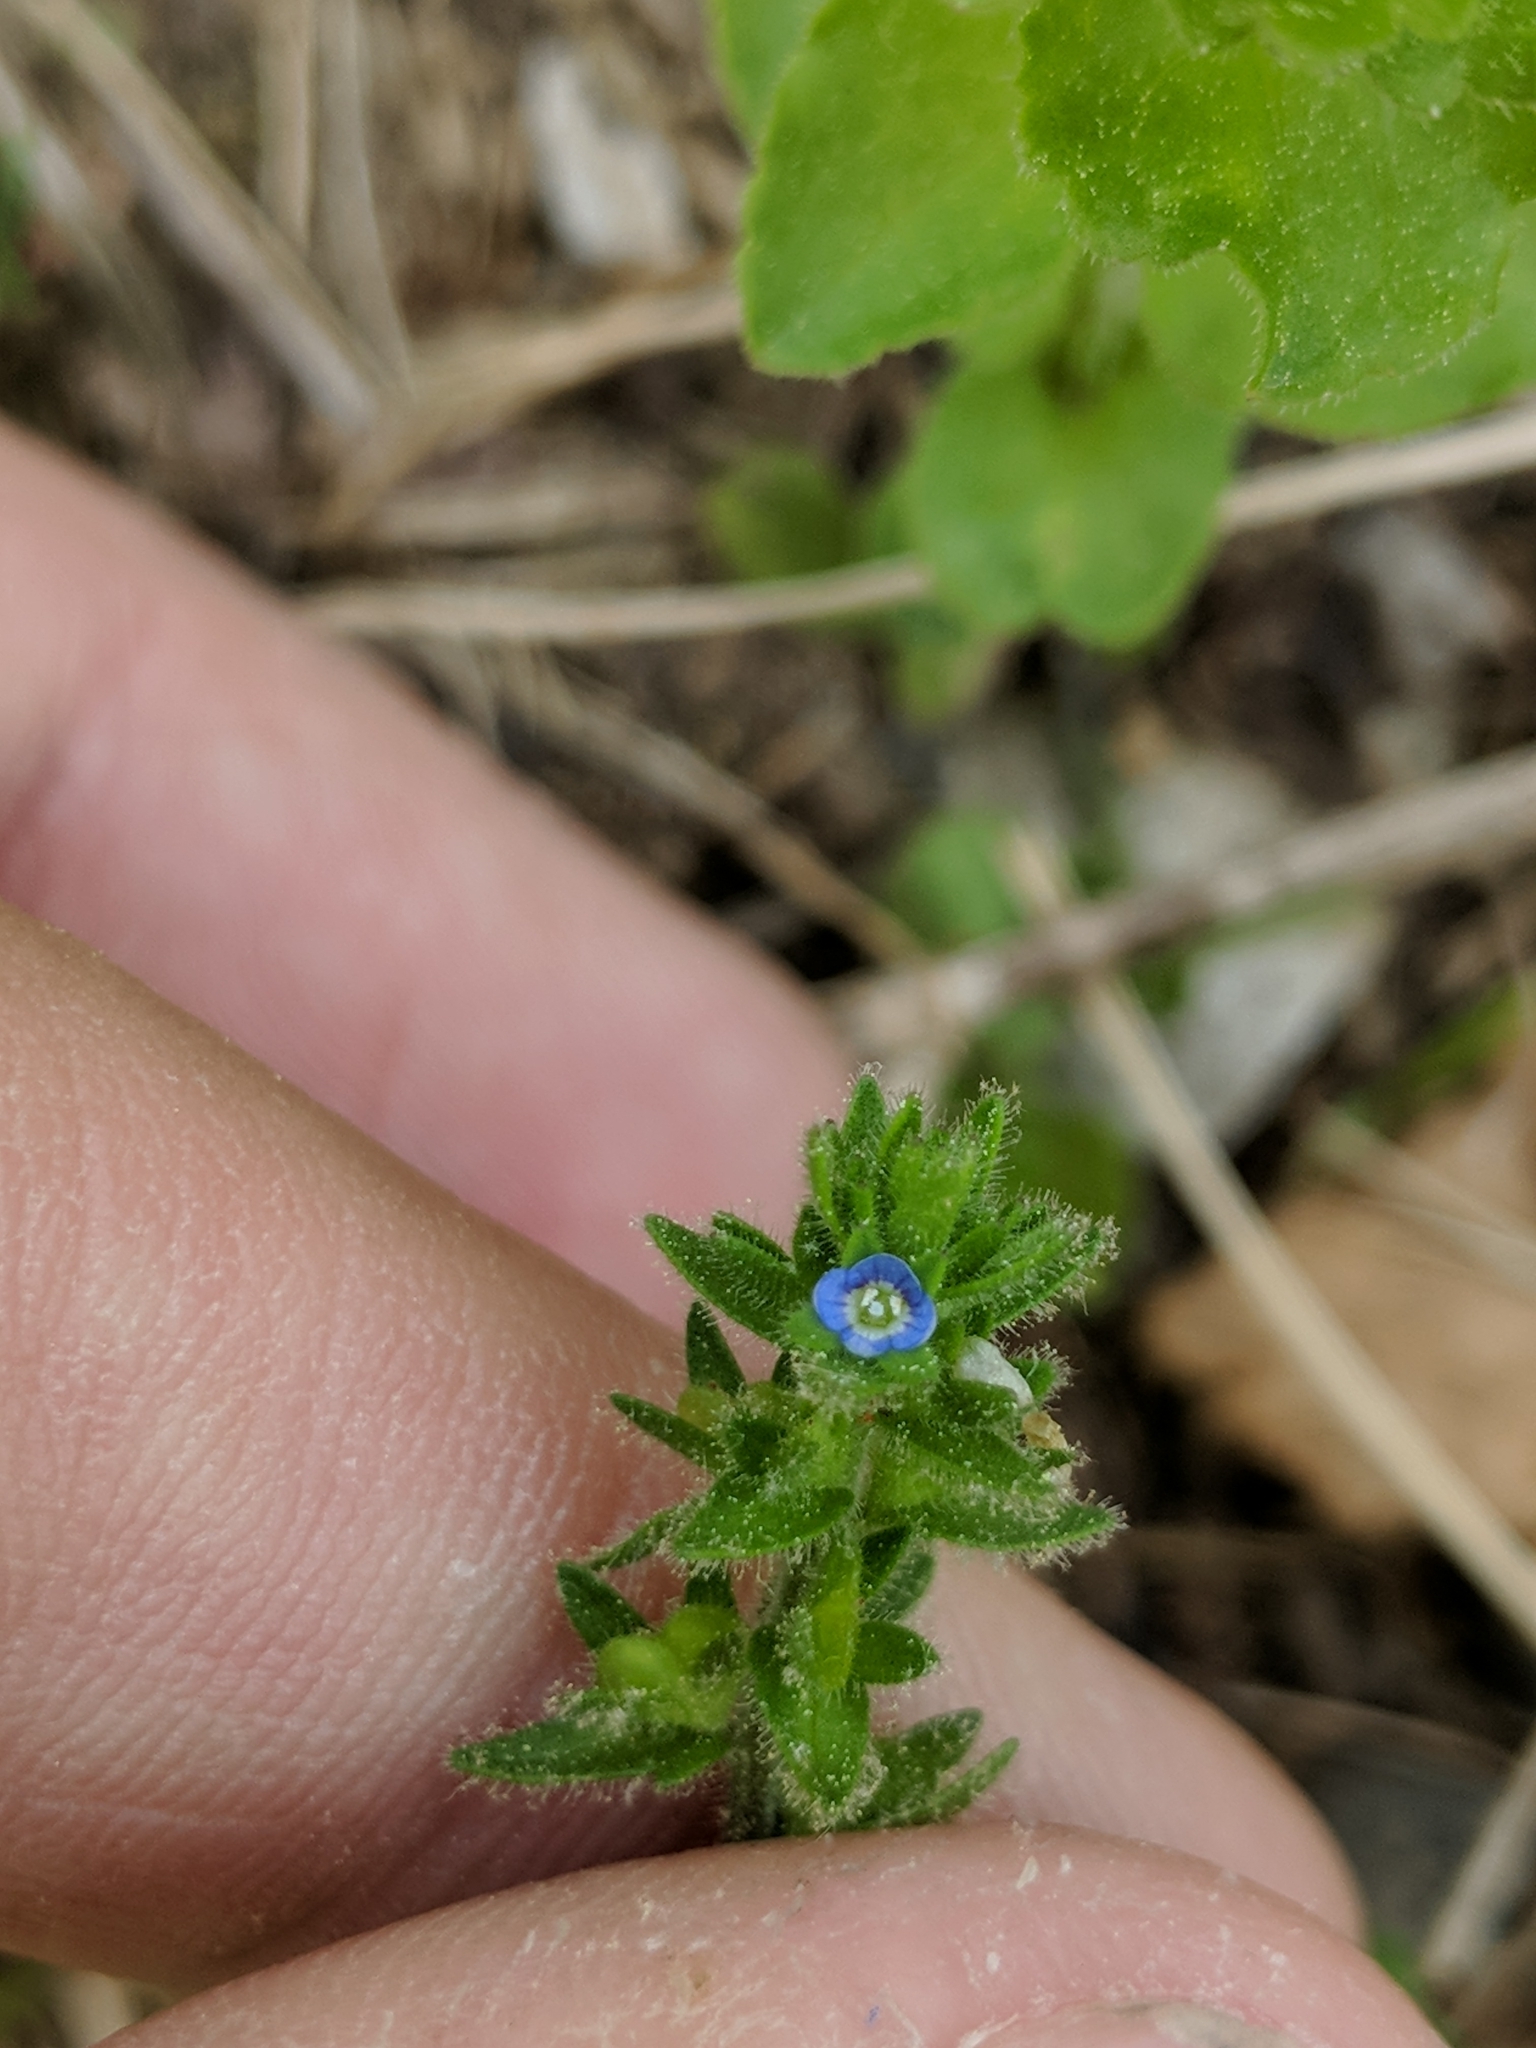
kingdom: Plantae
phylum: Tracheophyta
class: Magnoliopsida
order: Lamiales
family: Plantaginaceae
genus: Veronica
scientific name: Veronica arvensis
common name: Corn speedwell
